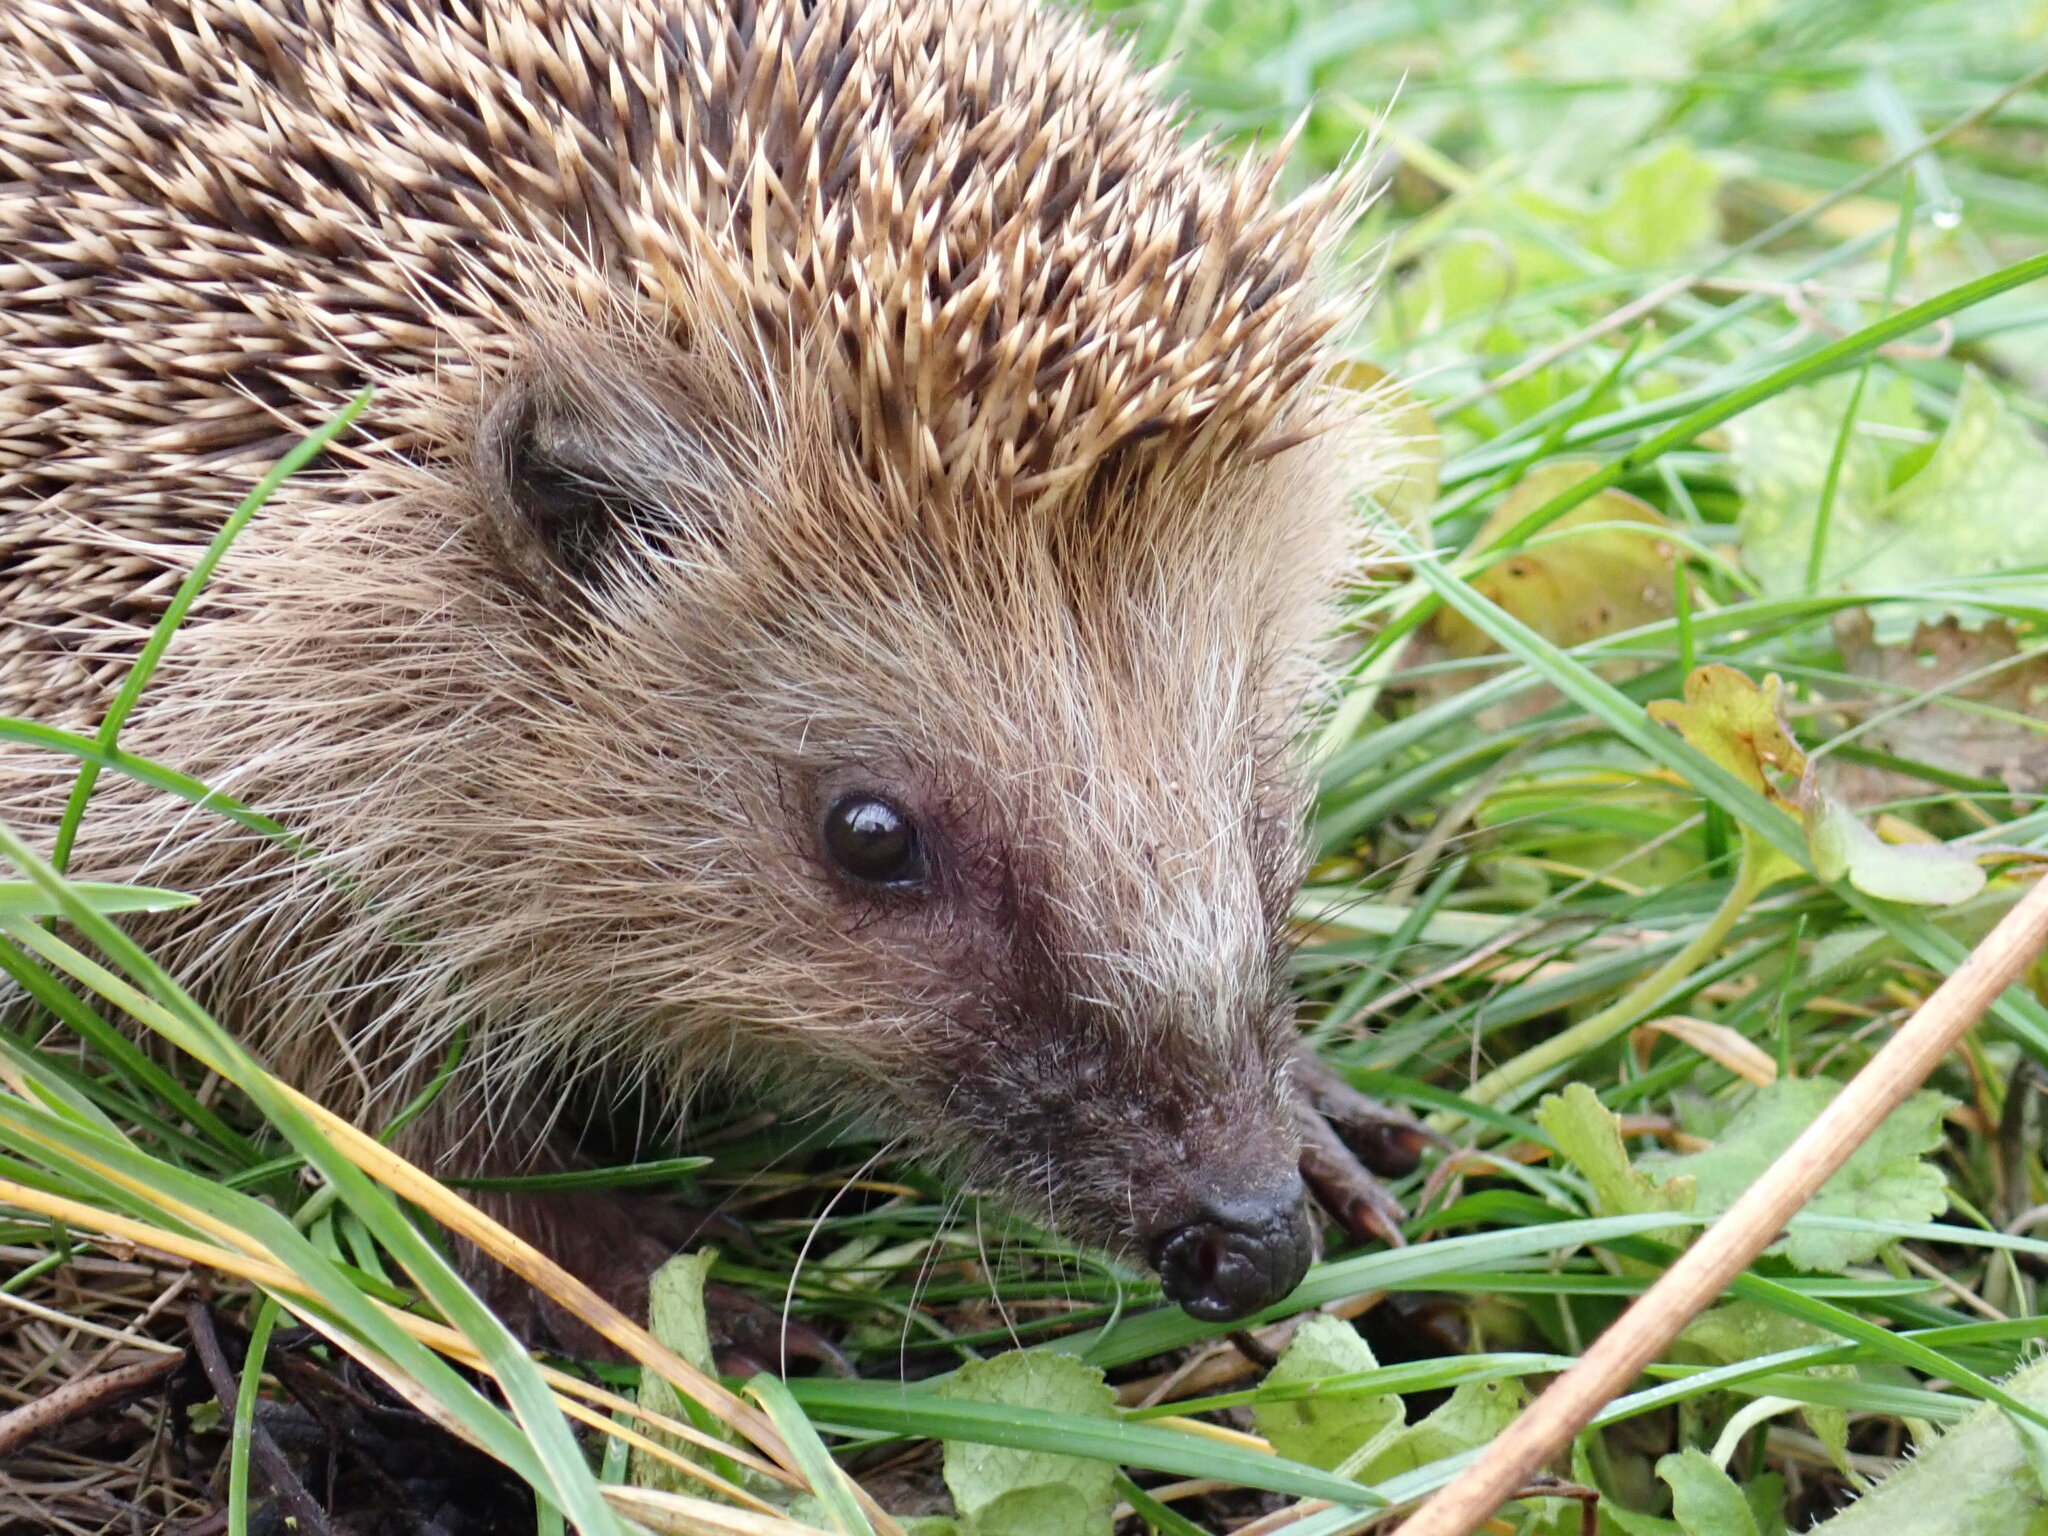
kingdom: Animalia
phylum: Chordata
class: Mammalia
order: Erinaceomorpha
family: Erinaceidae
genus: Erinaceus
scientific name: Erinaceus europaeus
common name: West european hedgehog
